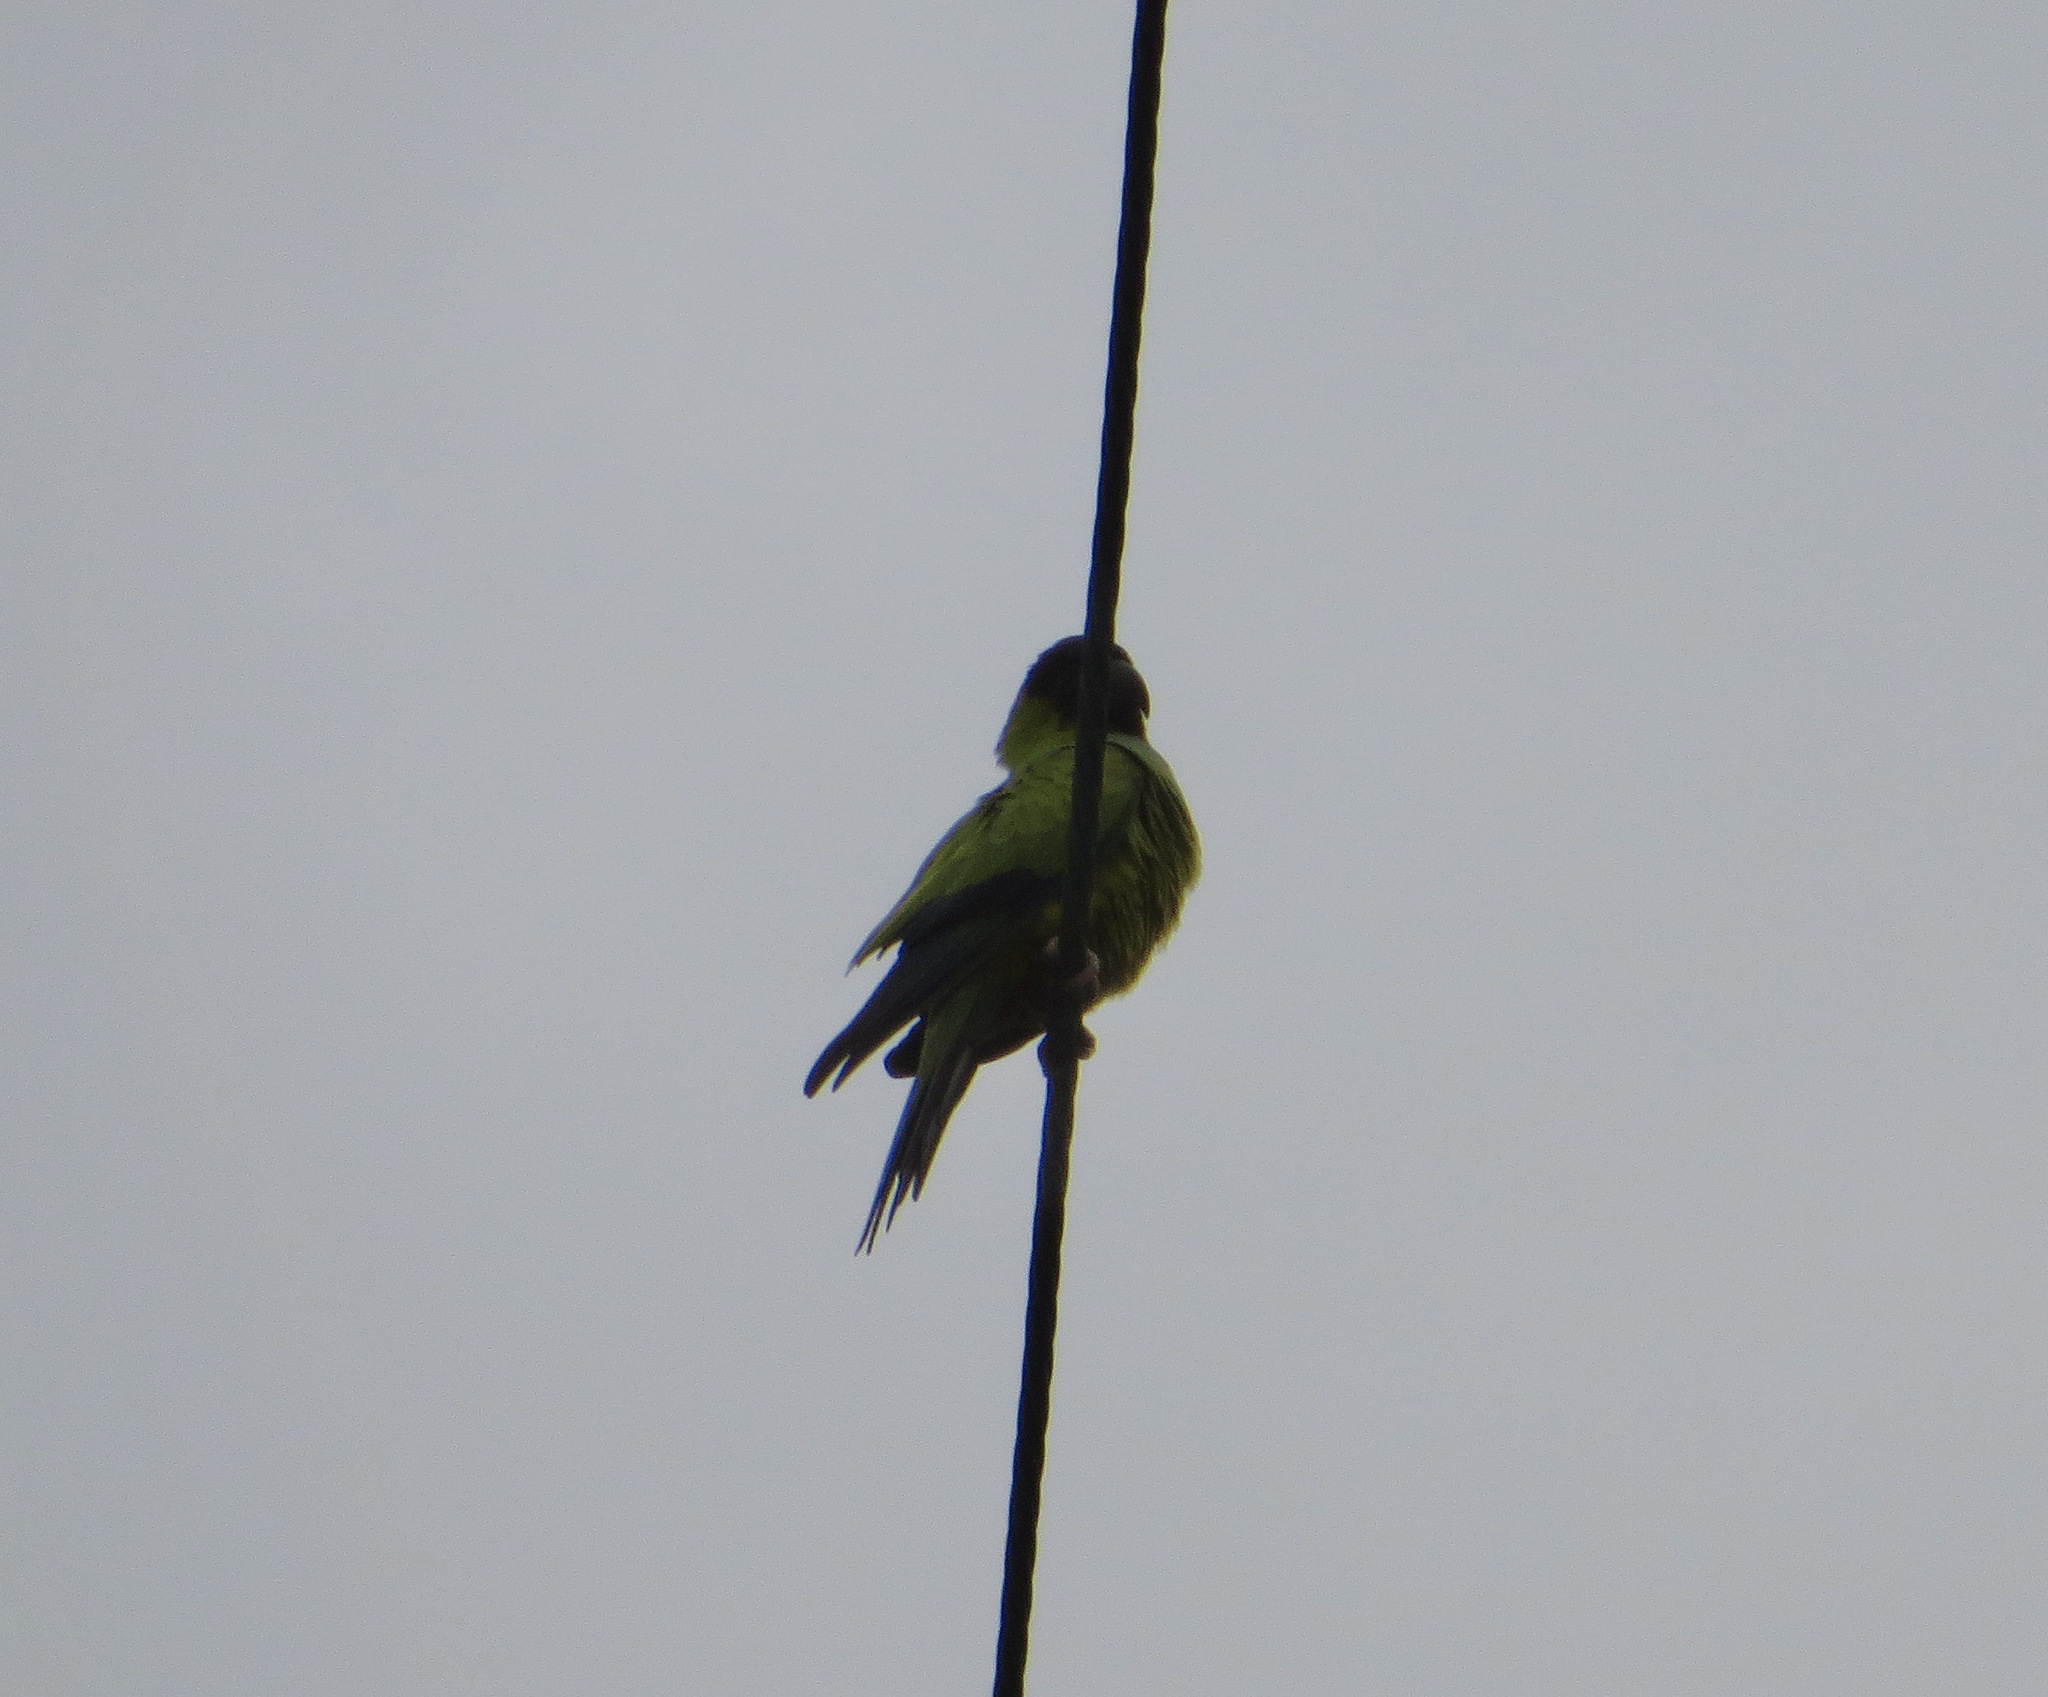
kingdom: Animalia
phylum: Chordata
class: Aves
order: Psittaciformes
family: Psittacidae
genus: Nandayus
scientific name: Nandayus nenday
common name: Nanday parakeet
